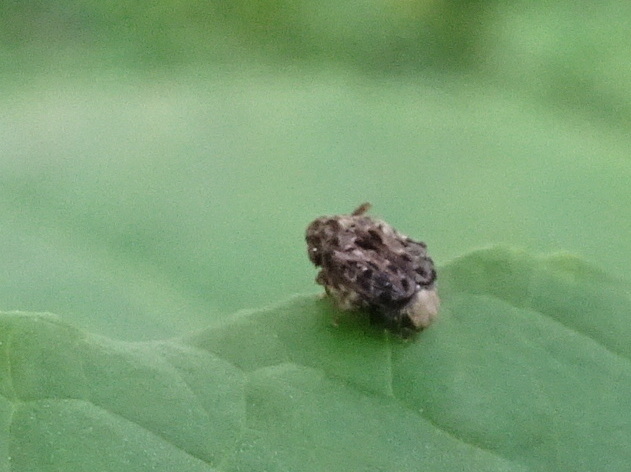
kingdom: Animalia
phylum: Arthropoda
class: Insecta
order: Coleoptera
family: Chrysomelidae
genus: Gibbobruchus
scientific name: Gibbobruchus mimus
